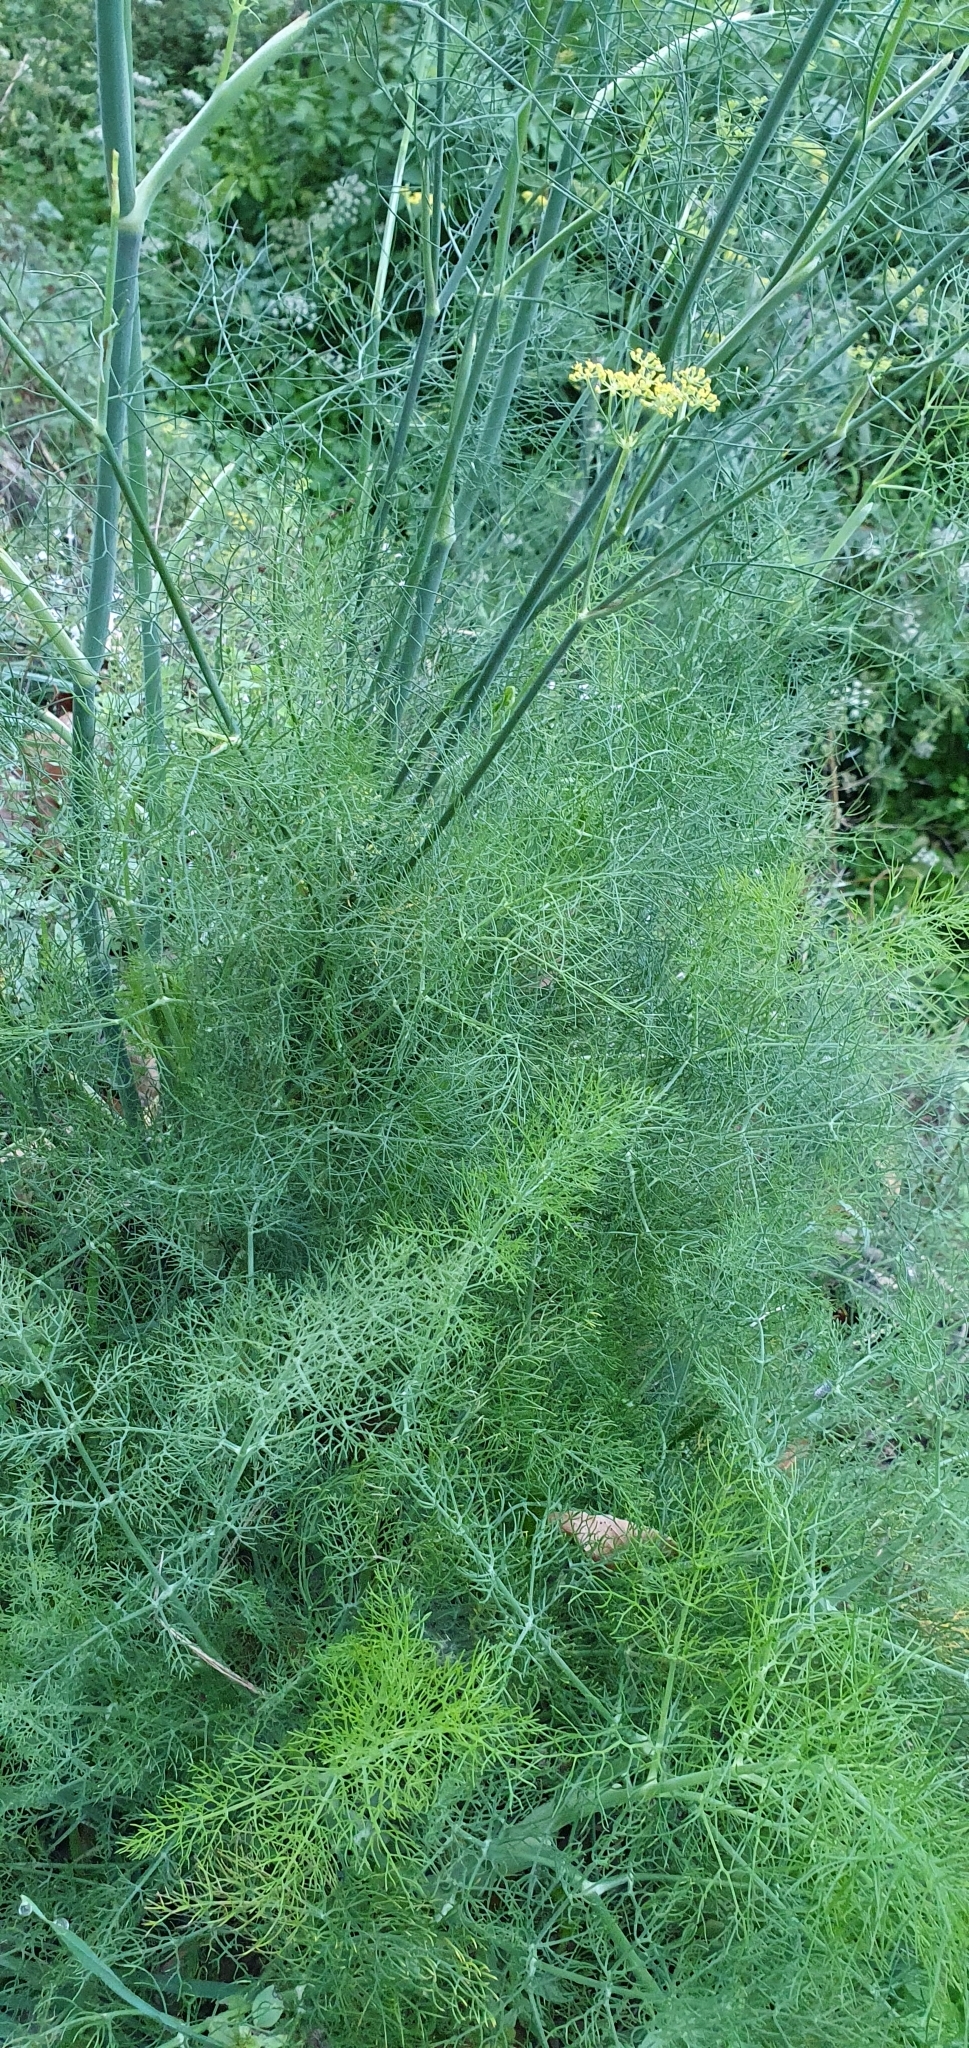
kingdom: Plantae
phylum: Tracheophyta
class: Magnoliopsida
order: Apiales
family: Apiaceae
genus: Foeniculum
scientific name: Foeniculum vulgare
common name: Fennel
